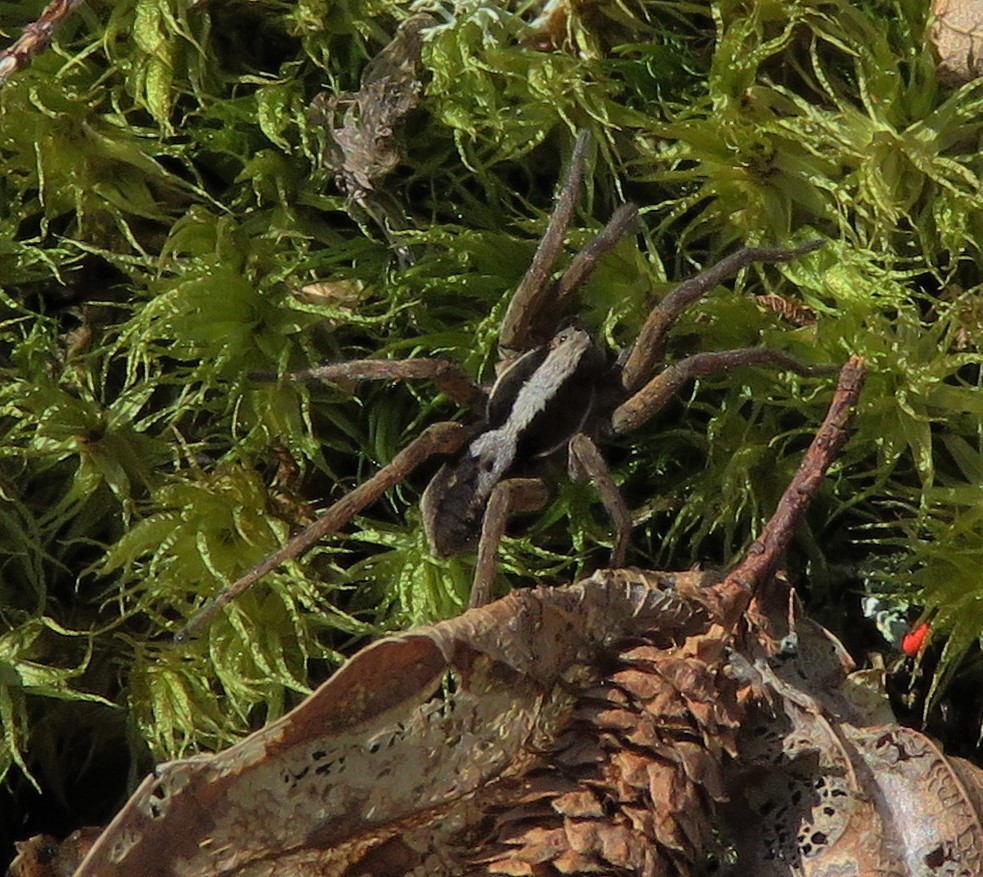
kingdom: Animalia
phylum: Arthropoda
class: Arachnida
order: Araneae
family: Lycosidae
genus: Hogna
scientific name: Hogna frondicola
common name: Forest wolf spider
